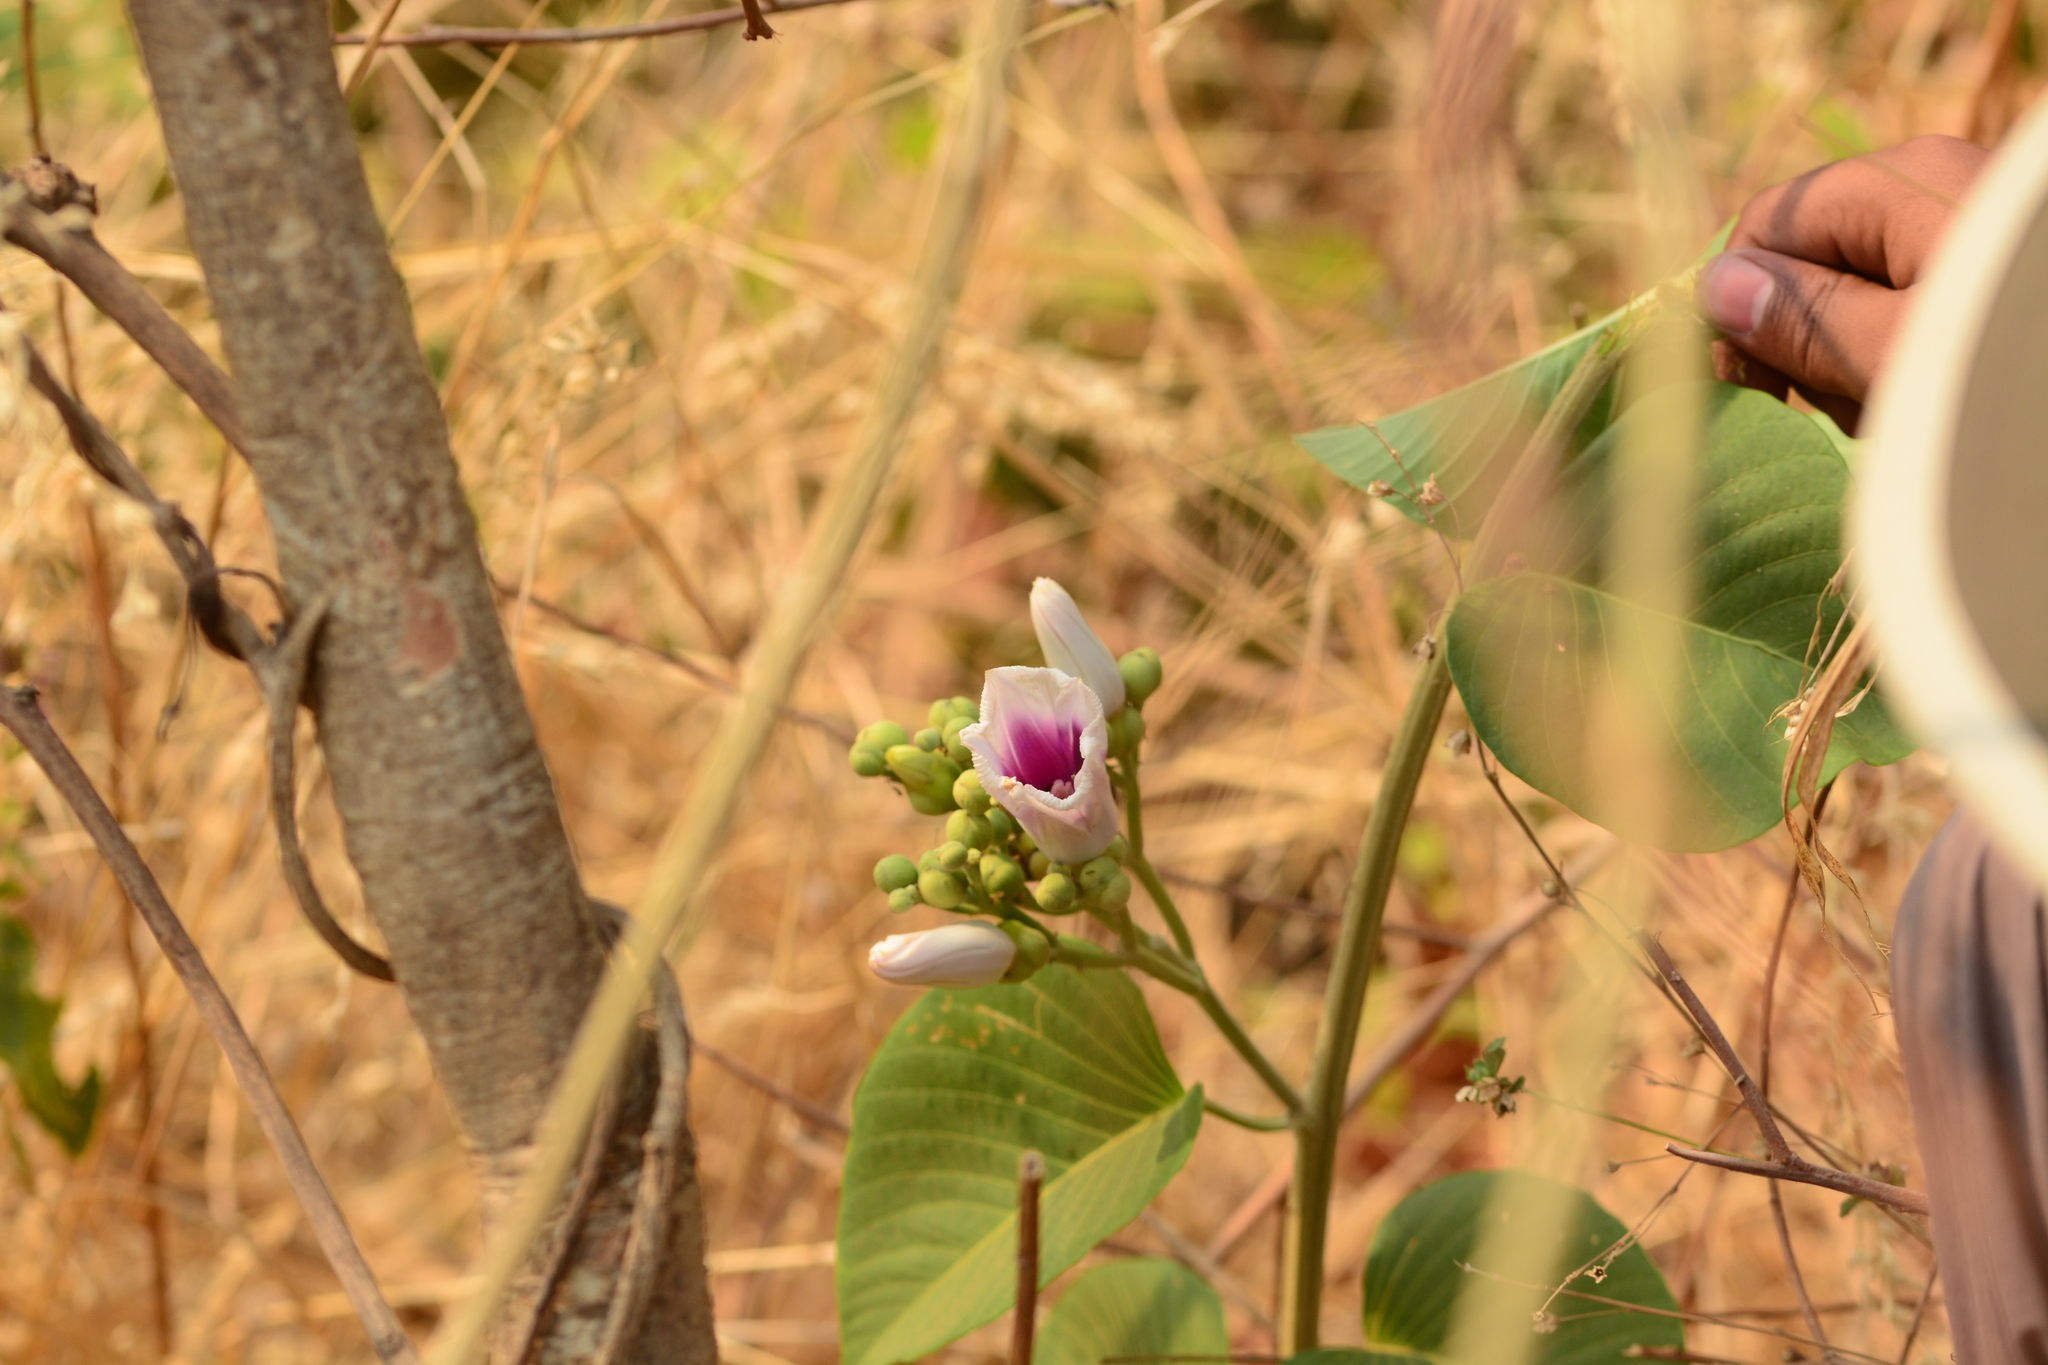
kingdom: Plantae
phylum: Tracheophyta
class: Magnoliopsida
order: Solanales
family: Convolvulaceae
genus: Ipomoea
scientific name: Ipomoea campanulata
